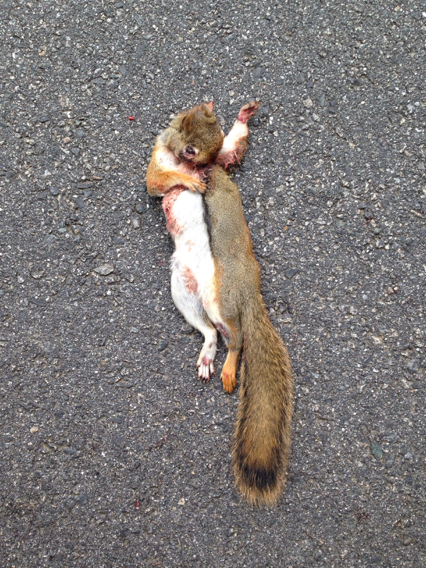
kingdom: Animalia
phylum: Chordata
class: Mammalia
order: Rodentia
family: Sciuridae
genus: Tamiasciurus
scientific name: Tamiasciurus hudsonicus
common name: Red squirrel
